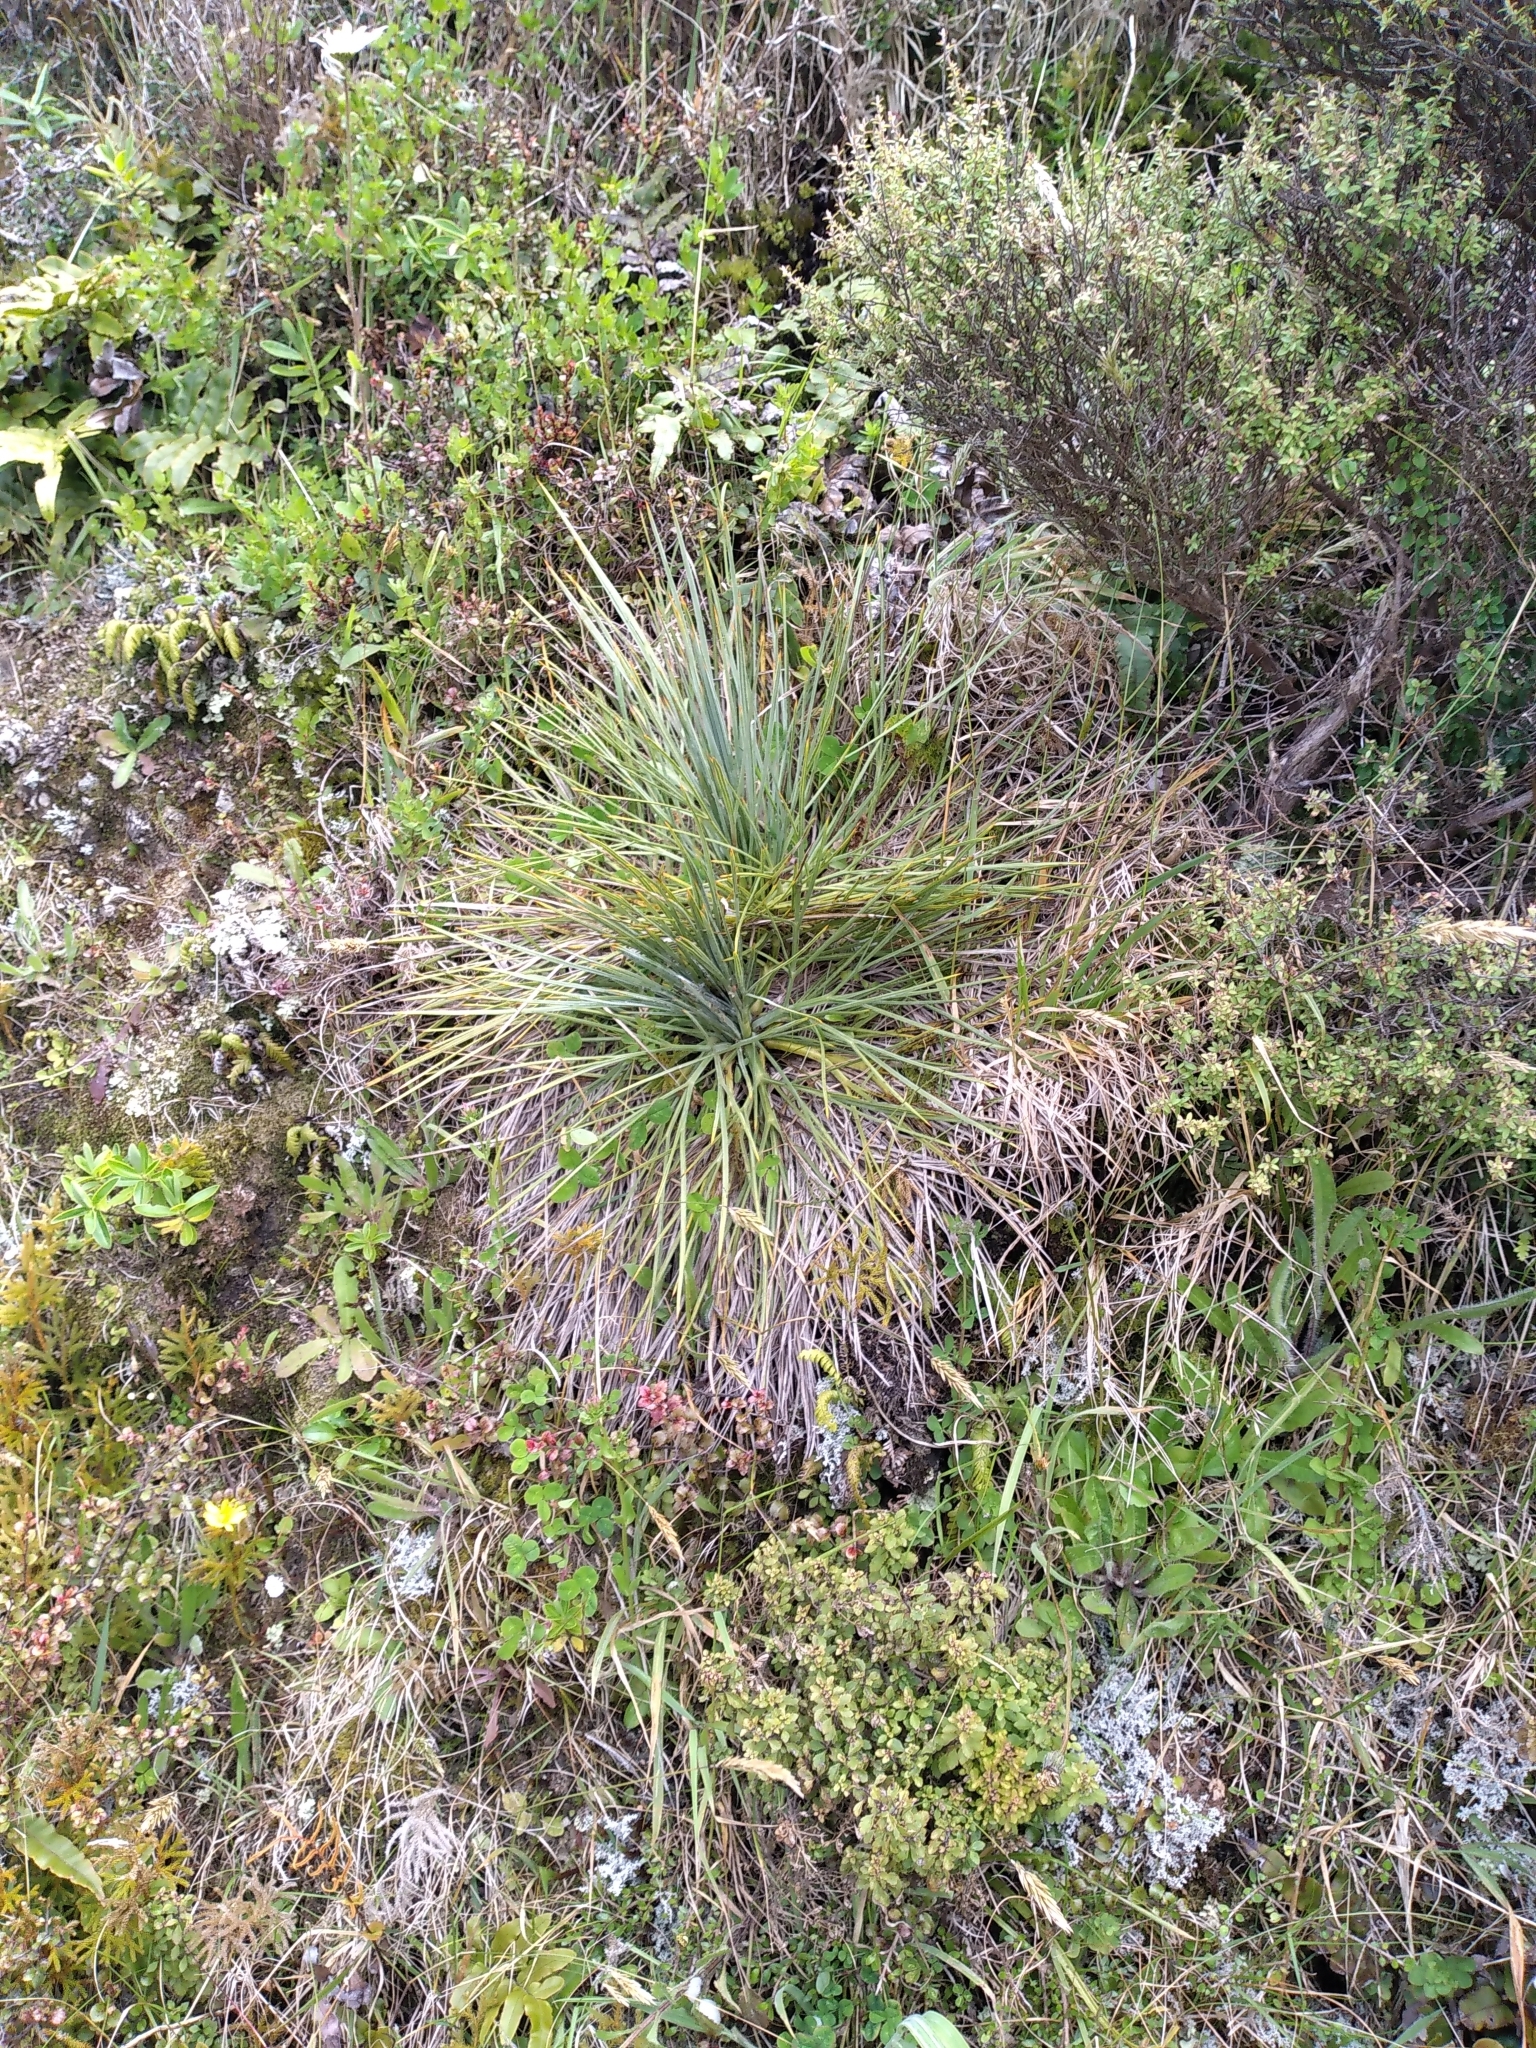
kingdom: Plantae
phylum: Tracheophyta
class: Magnoliopsida
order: Apiales
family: Apiaceae
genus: Aciphylla
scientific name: Aciphylla squarrosa
